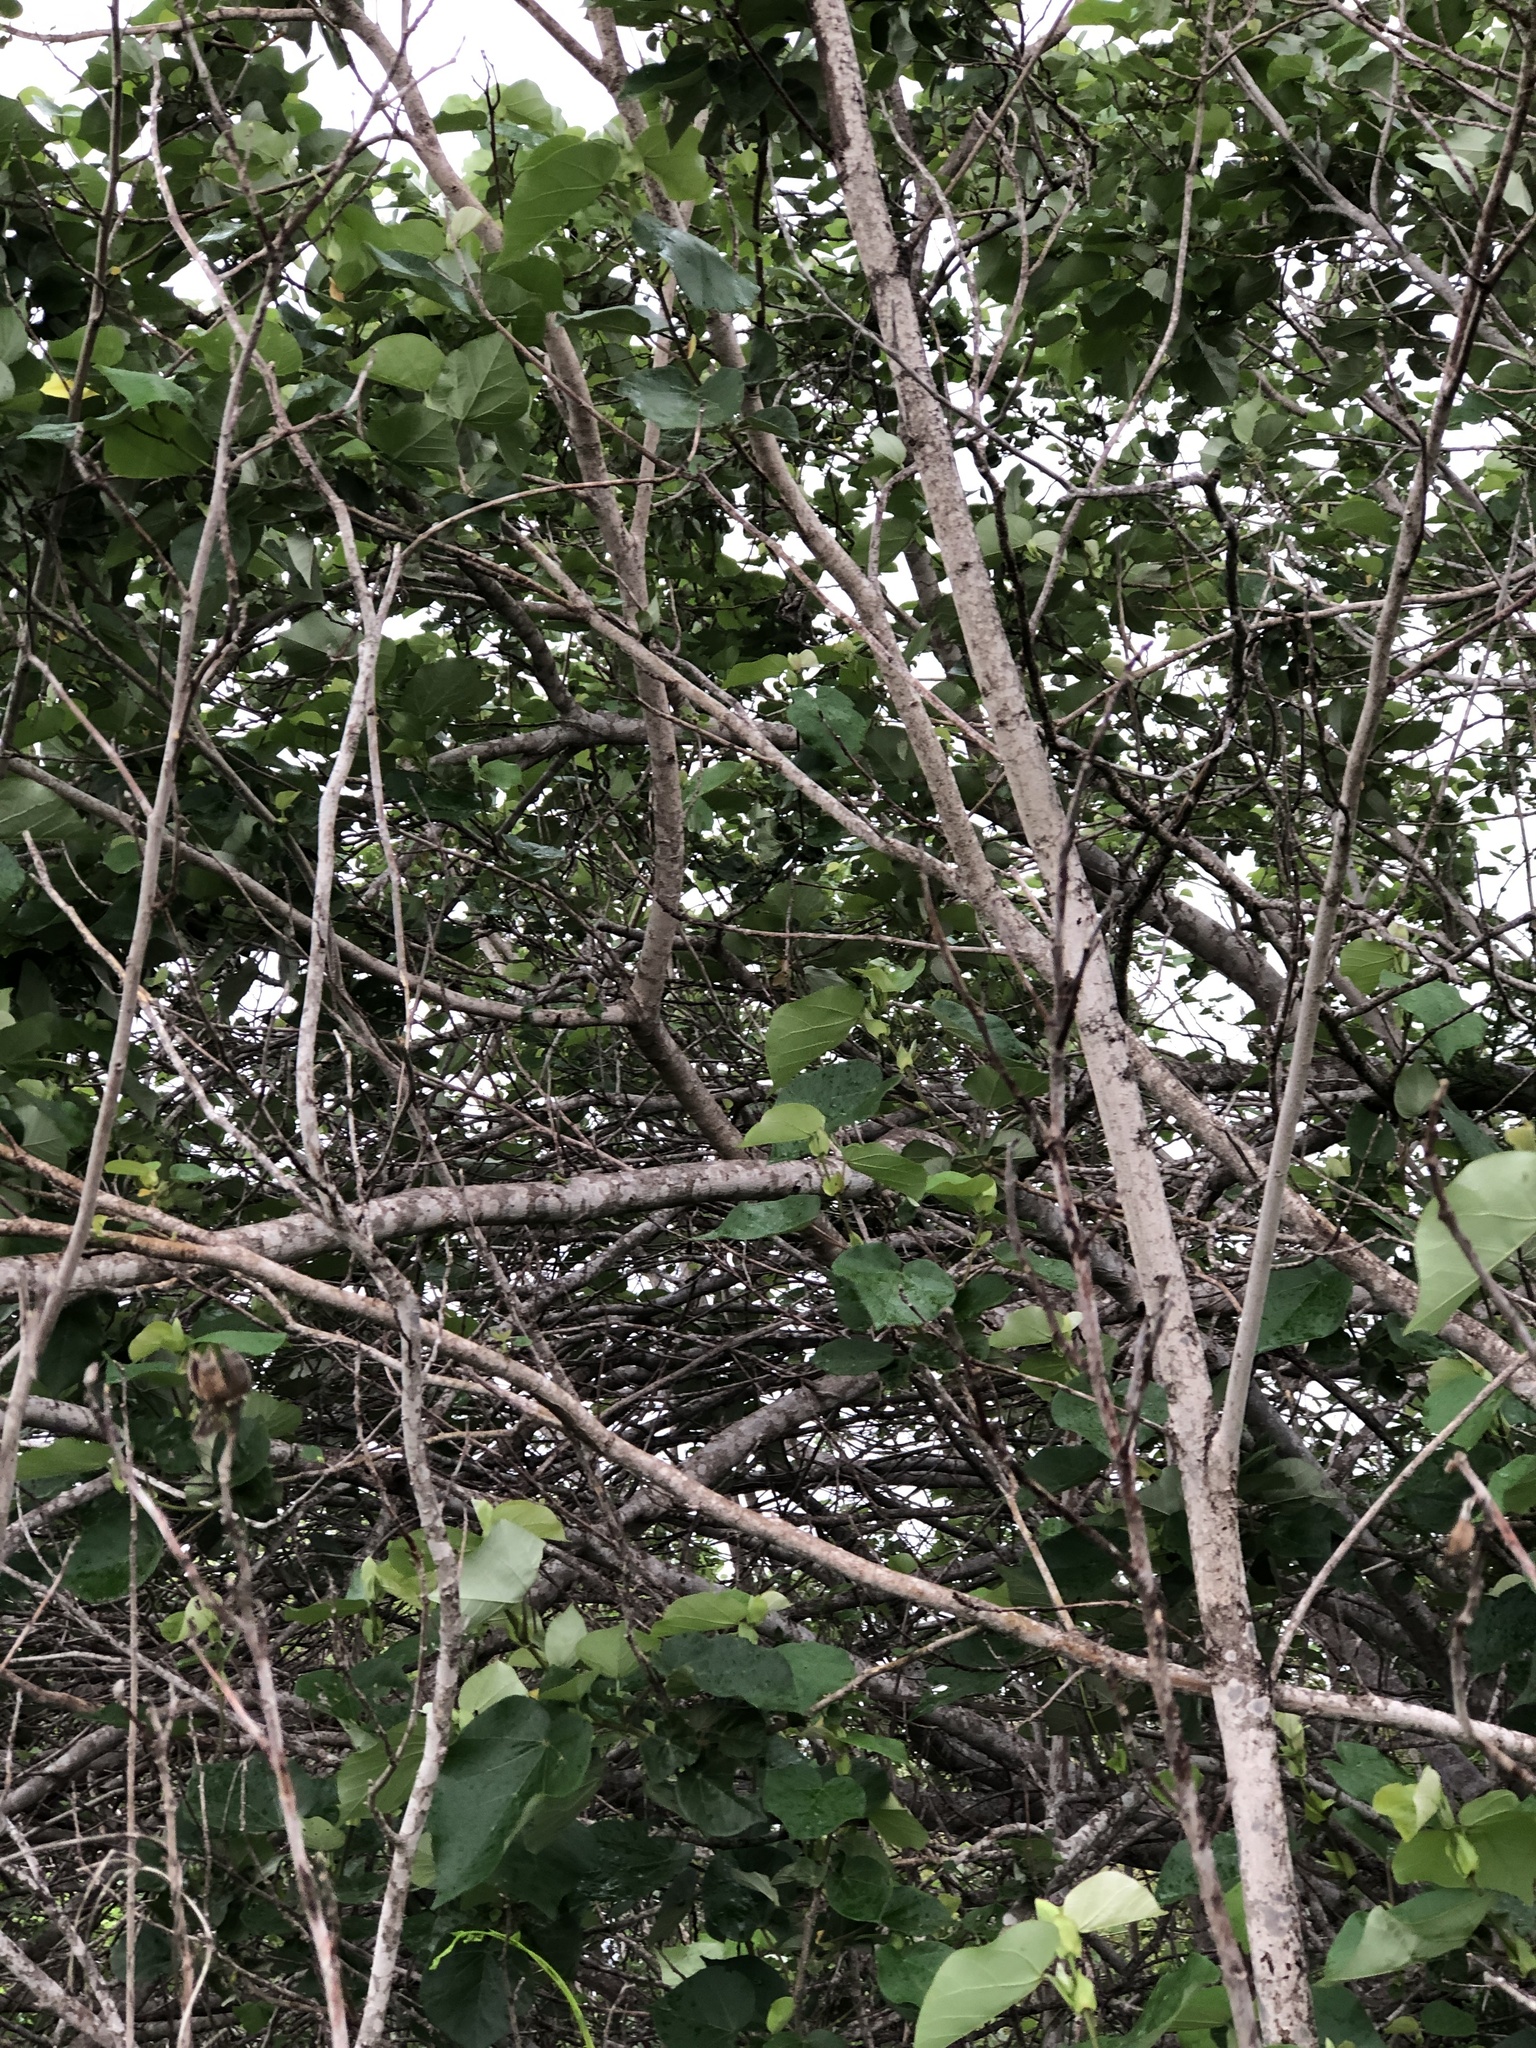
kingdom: Plantae
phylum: Tracheophyta
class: Magnoliopsida
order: Malvales
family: Malvaceae
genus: Talipariti
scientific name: Talipariti tiliaceum
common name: Sea hibiscus
